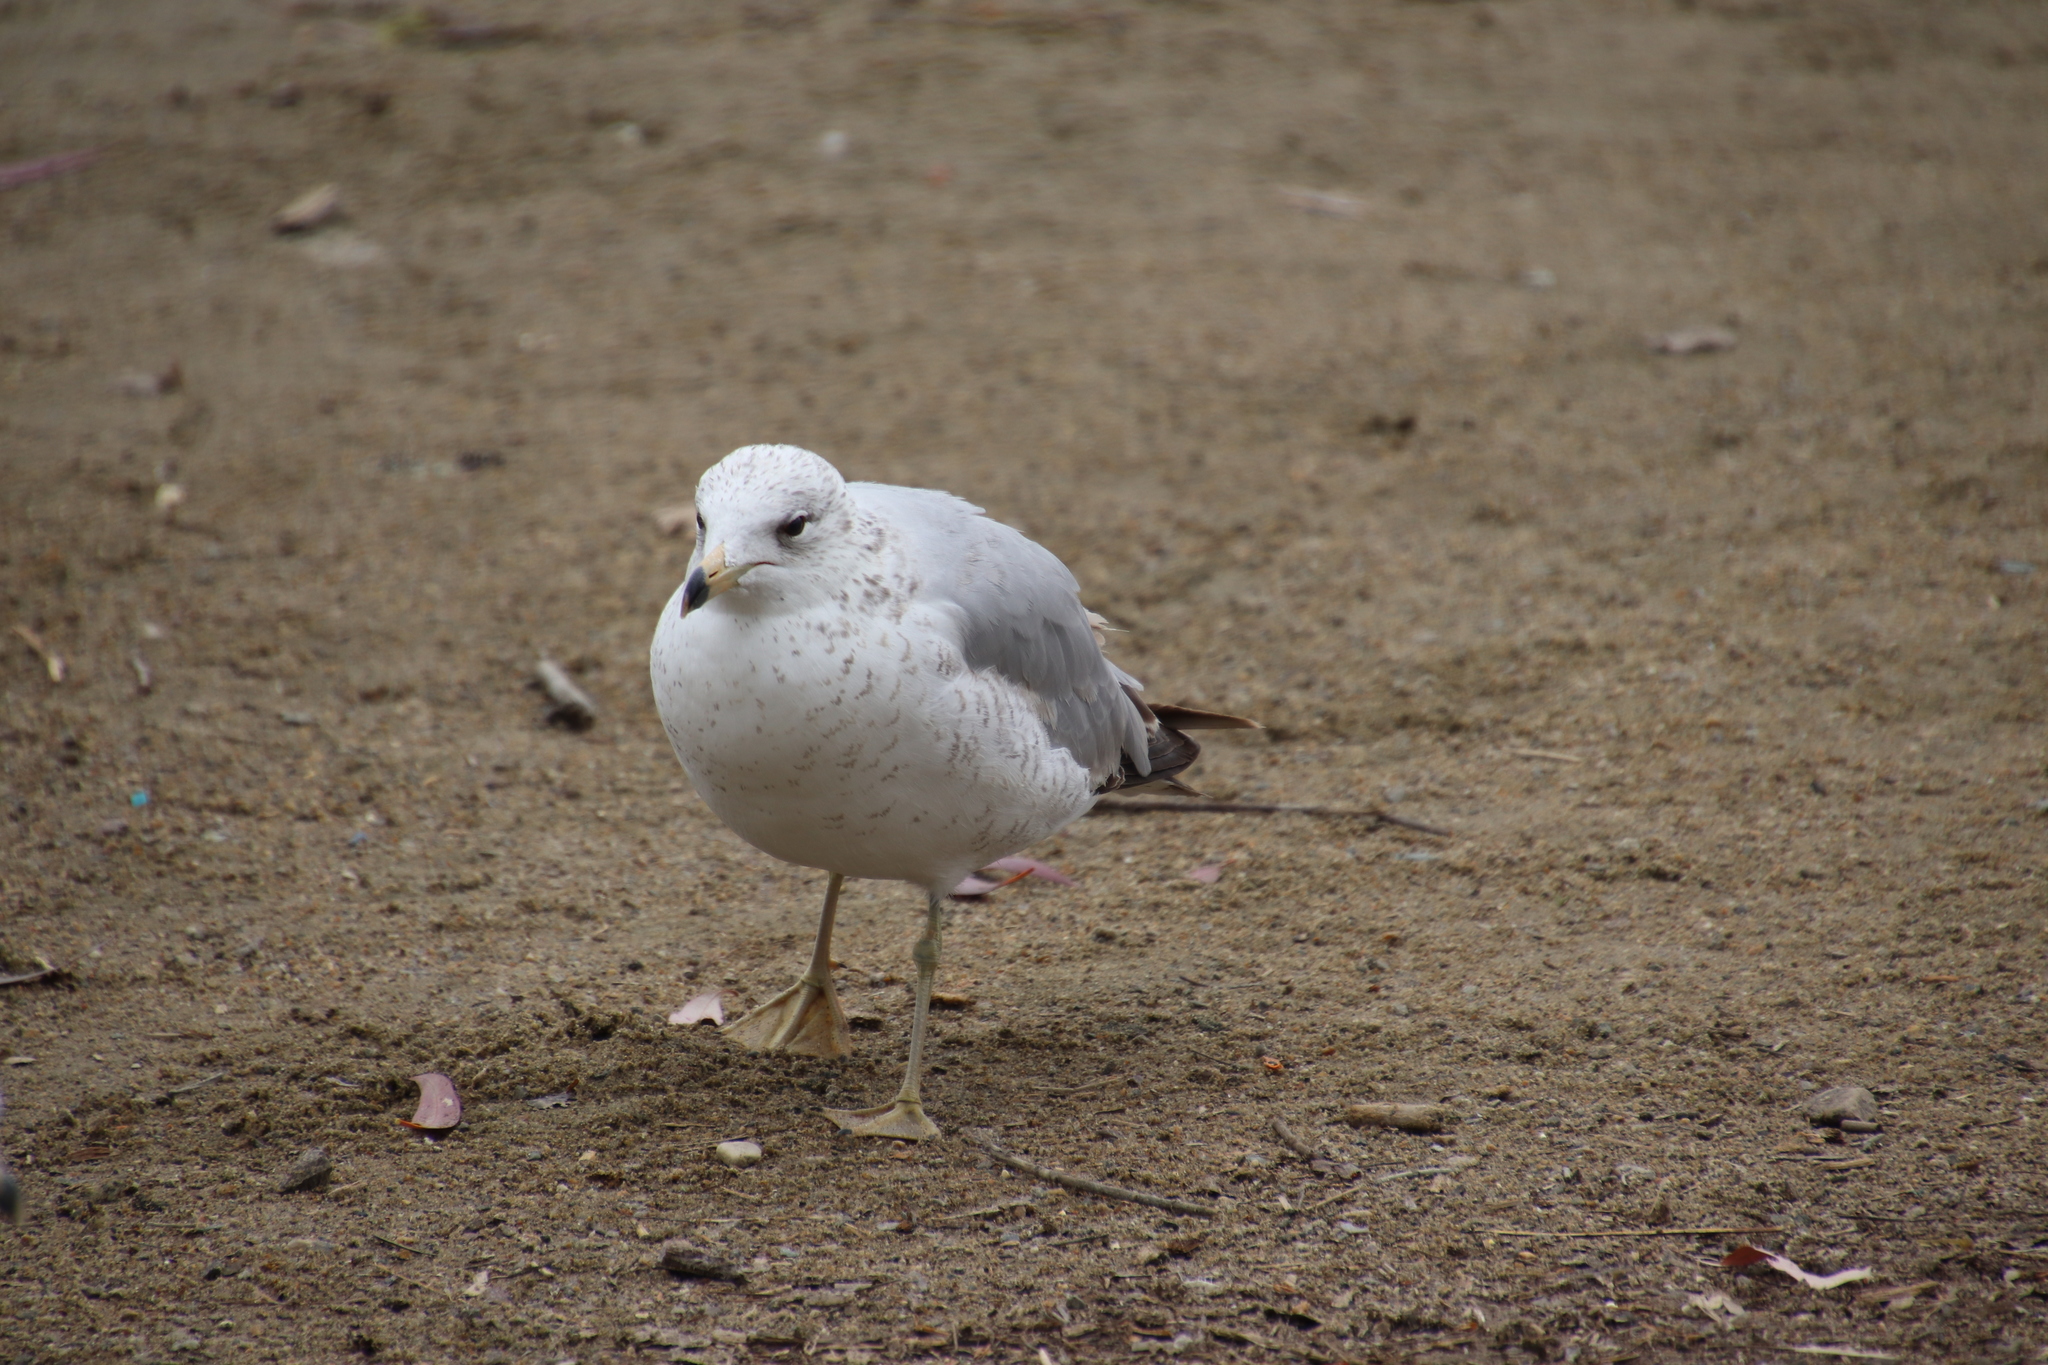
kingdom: Animalia
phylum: Chordata
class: Aves
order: Charadriiformes
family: Laridae
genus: Larus
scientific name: Larus delawarensis
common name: Ring-billed gull
